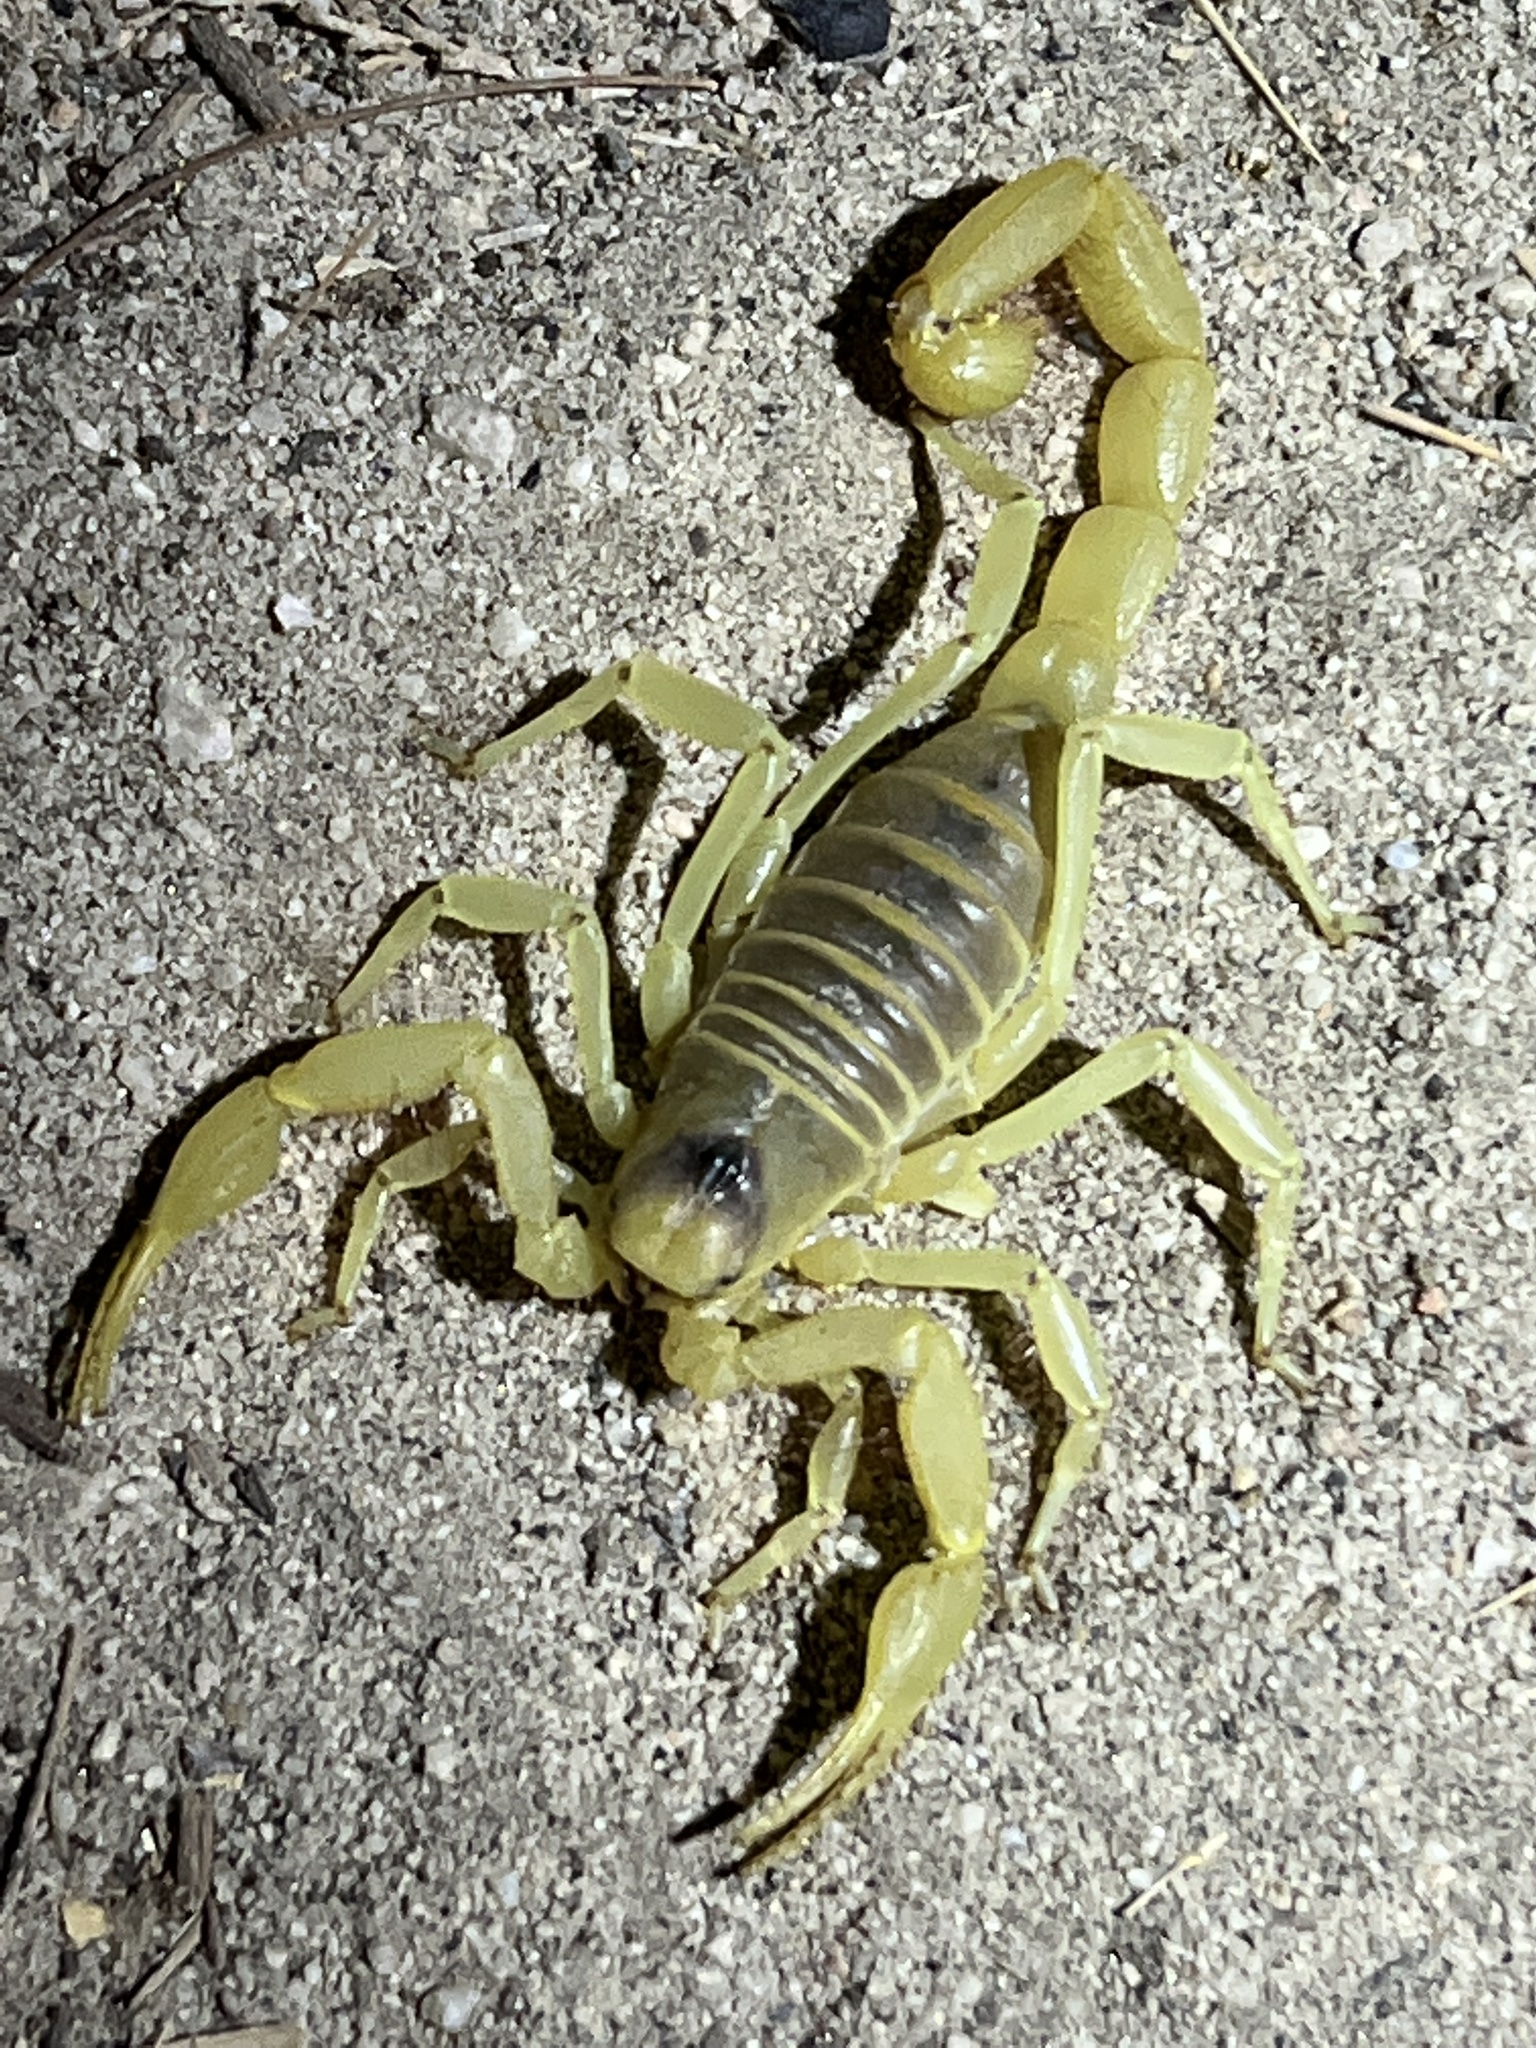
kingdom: Animalia
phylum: Arthropoda
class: Arachnida
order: Scorpiones
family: Hadruridae
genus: Hadrurus
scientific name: Hadrurus arizonensis
